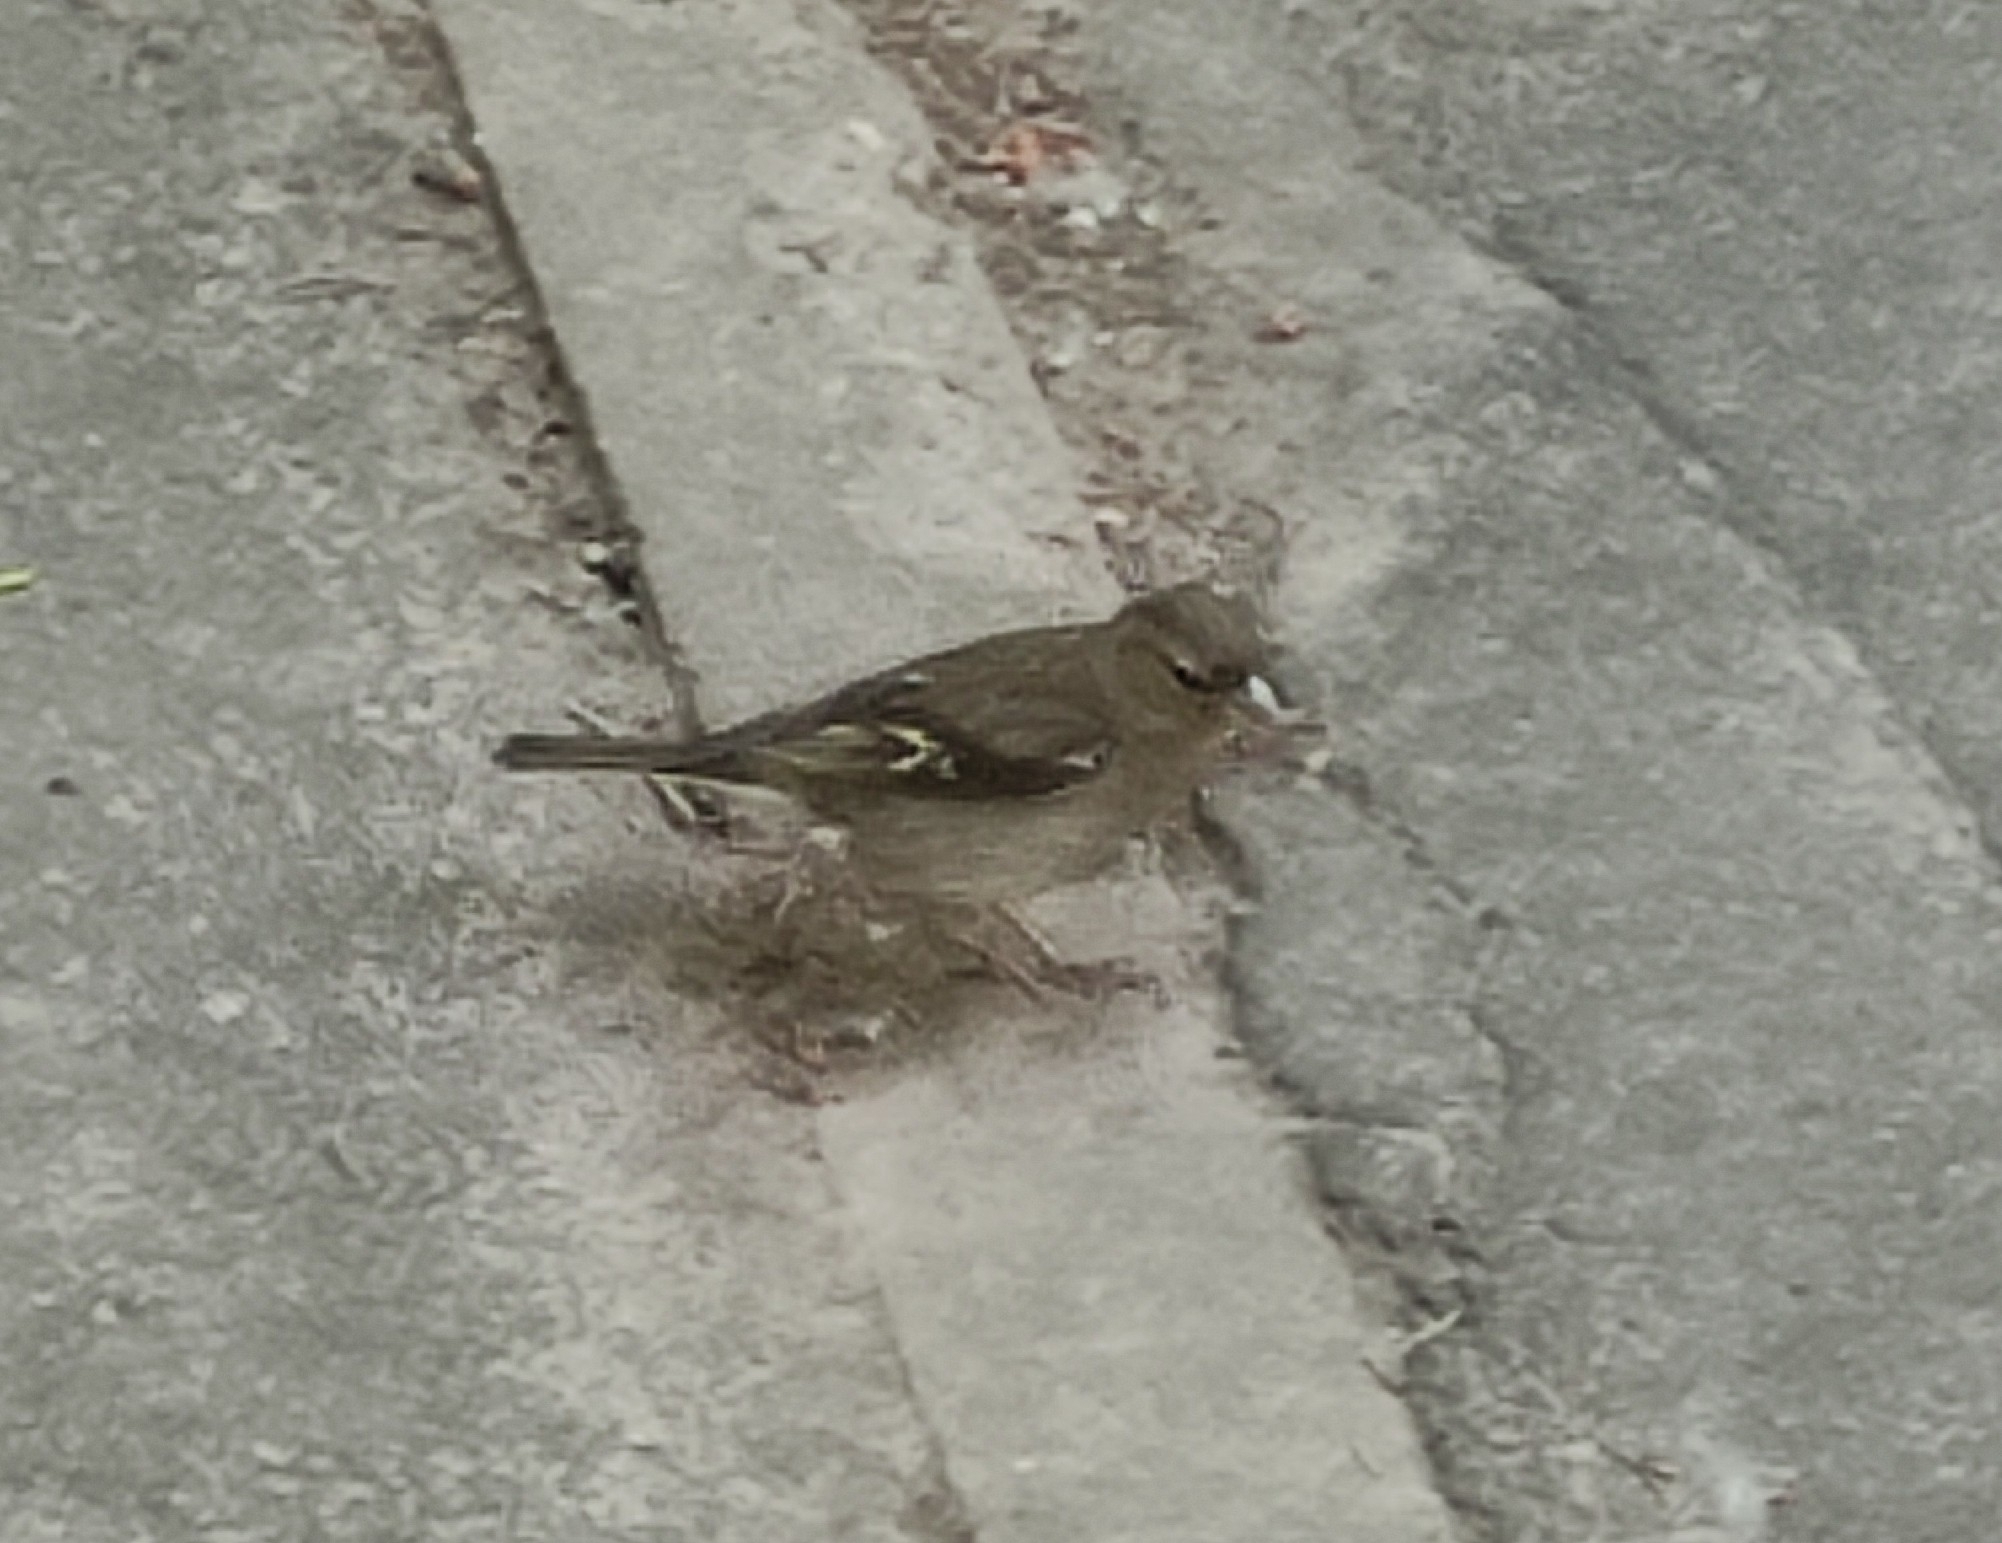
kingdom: Animalia
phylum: Chordata
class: Aves
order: Passeriformes
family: Fringillidae
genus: Fringilla
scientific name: Fringilla coelebs
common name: Common chaffinch
